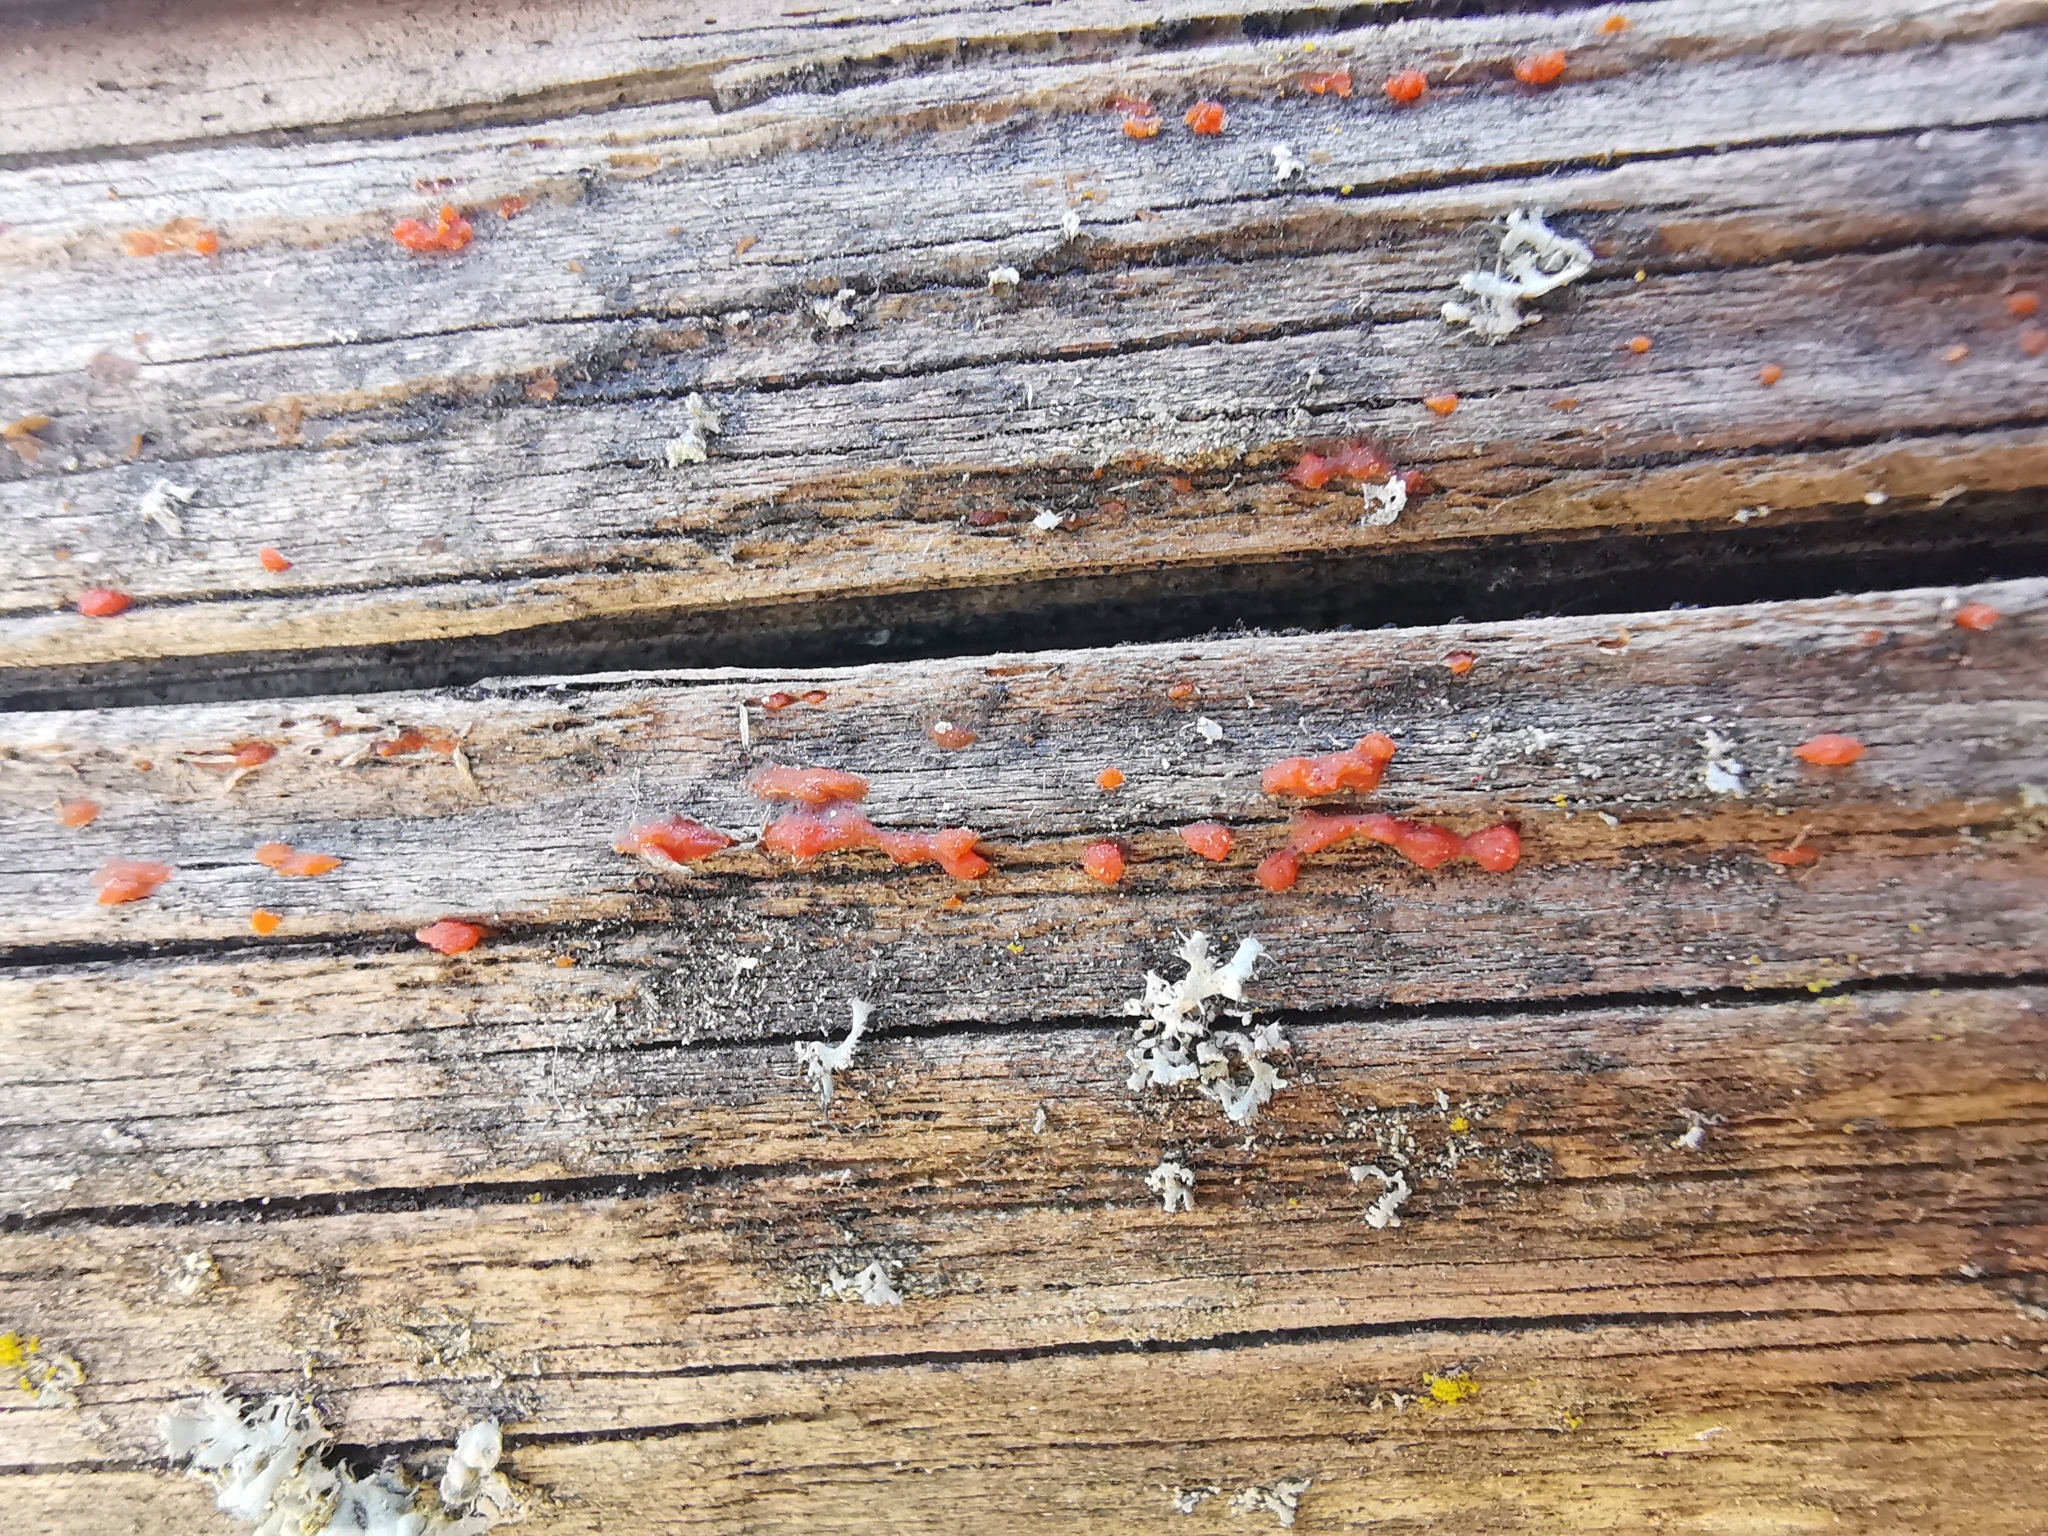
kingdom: Fungi
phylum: Basidiomycota
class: Dacrymycetes
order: Dacrymycetales
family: Dacrymycetaceae
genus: Dacrymyces
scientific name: Dacrymyces stillatus
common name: Common jelly spot
